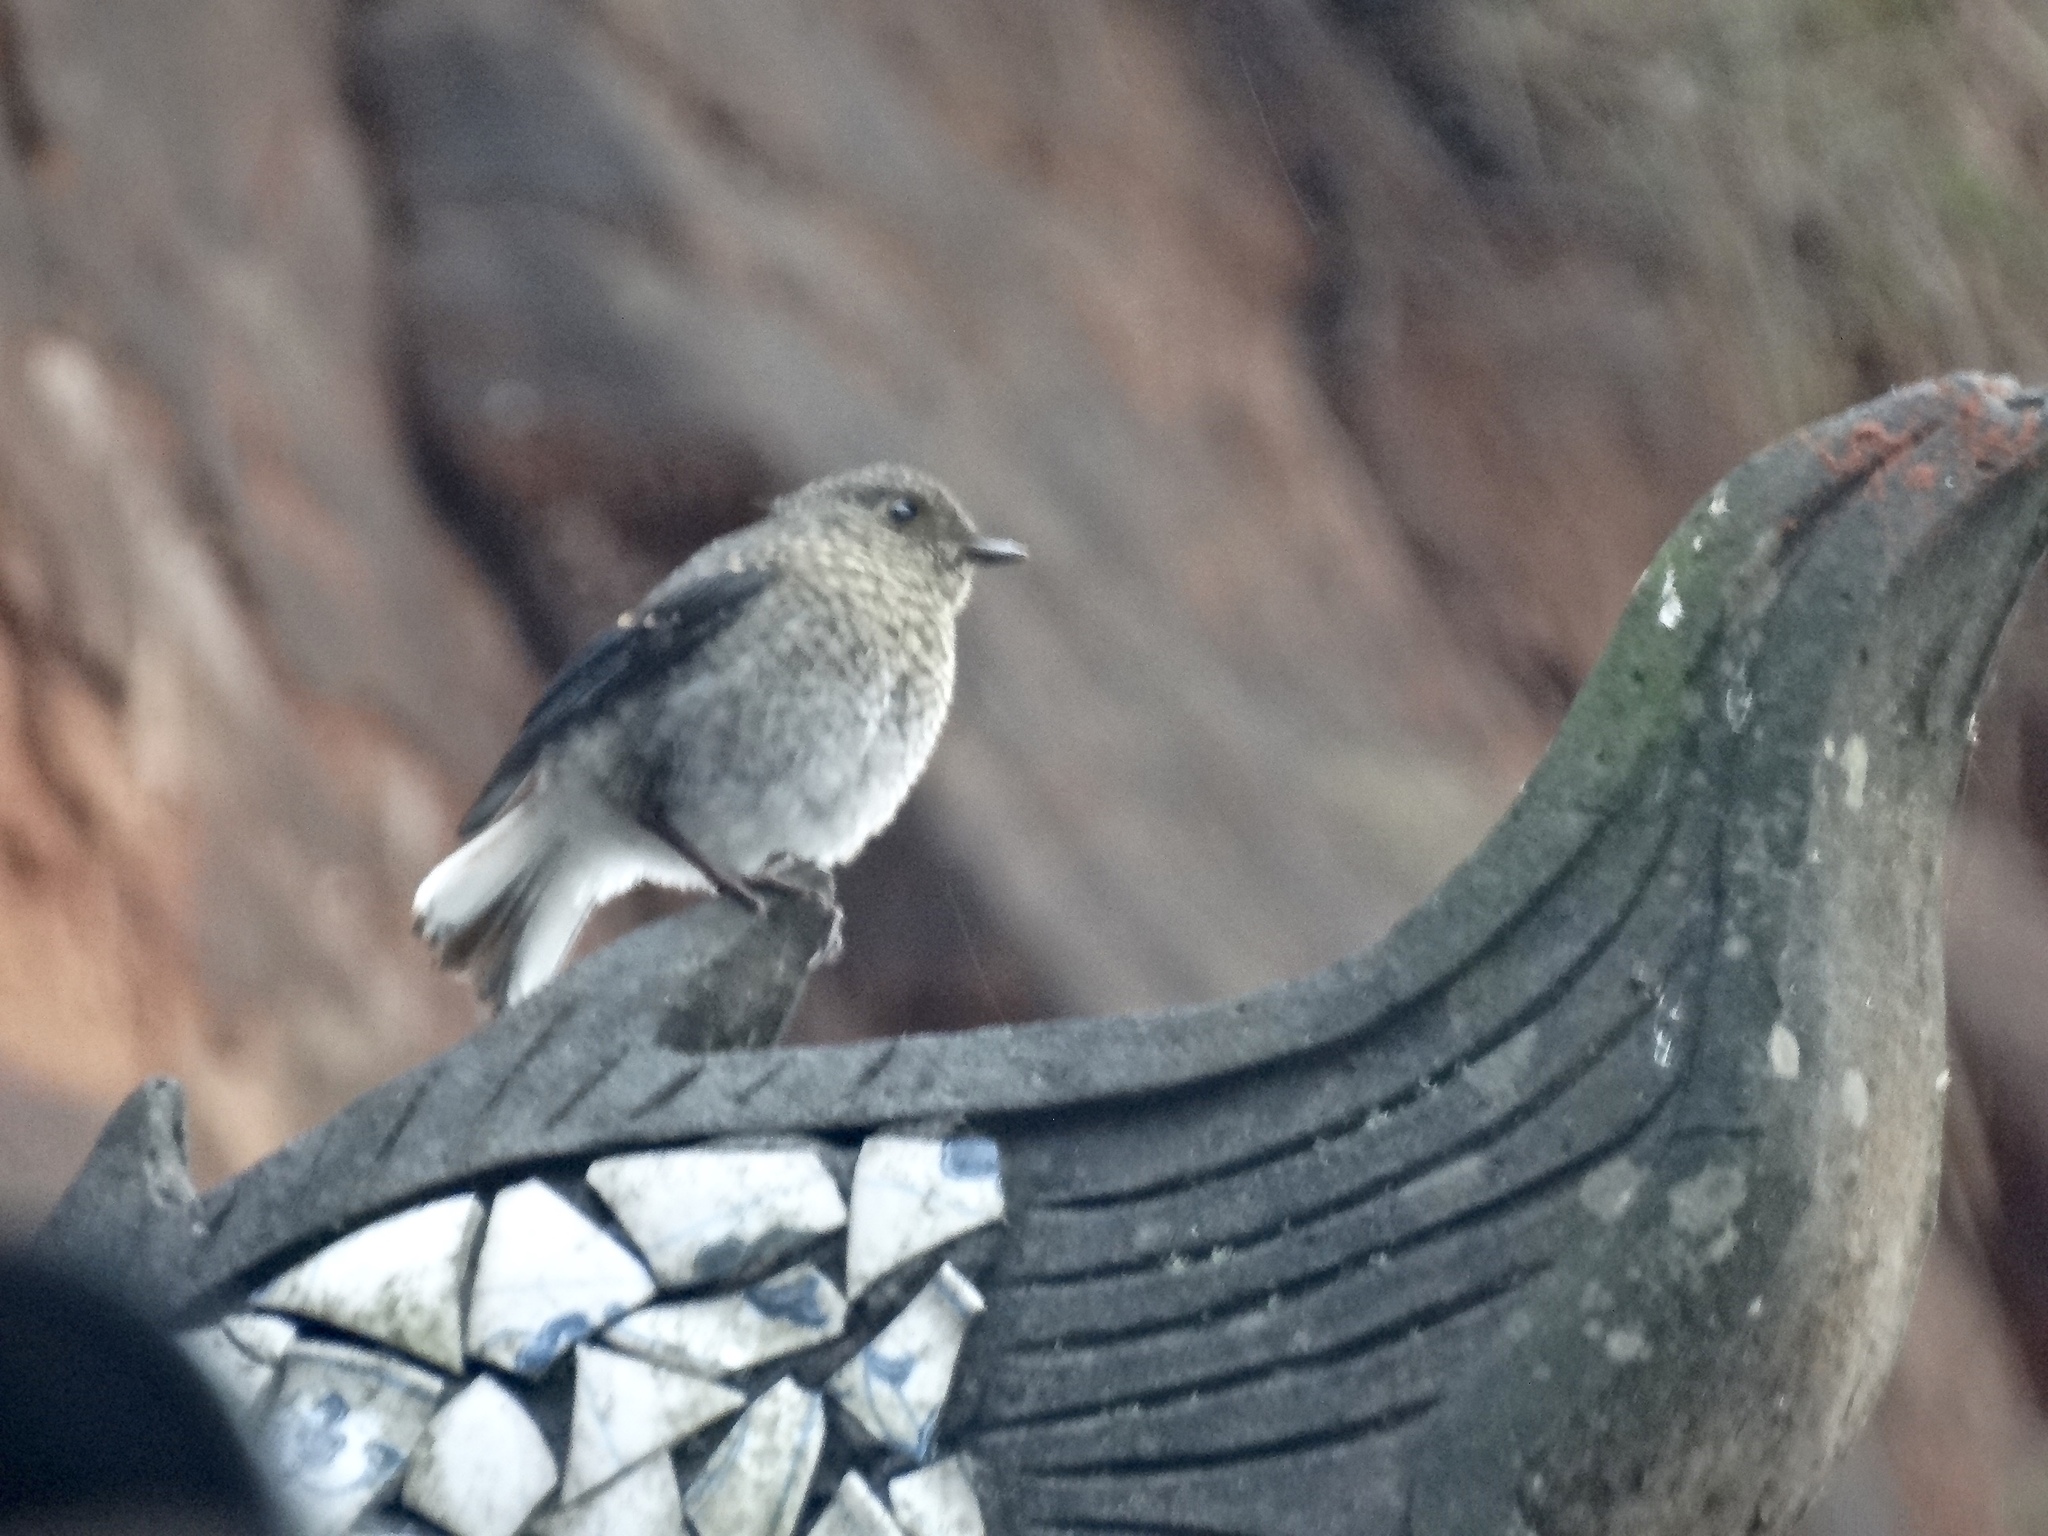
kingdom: Animalia
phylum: Chordata
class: Aves
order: Passeriformes
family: Muscicapidae
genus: Phoenicurus
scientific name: Phoenicurus fuliginosus
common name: Plumbeous water redstart
